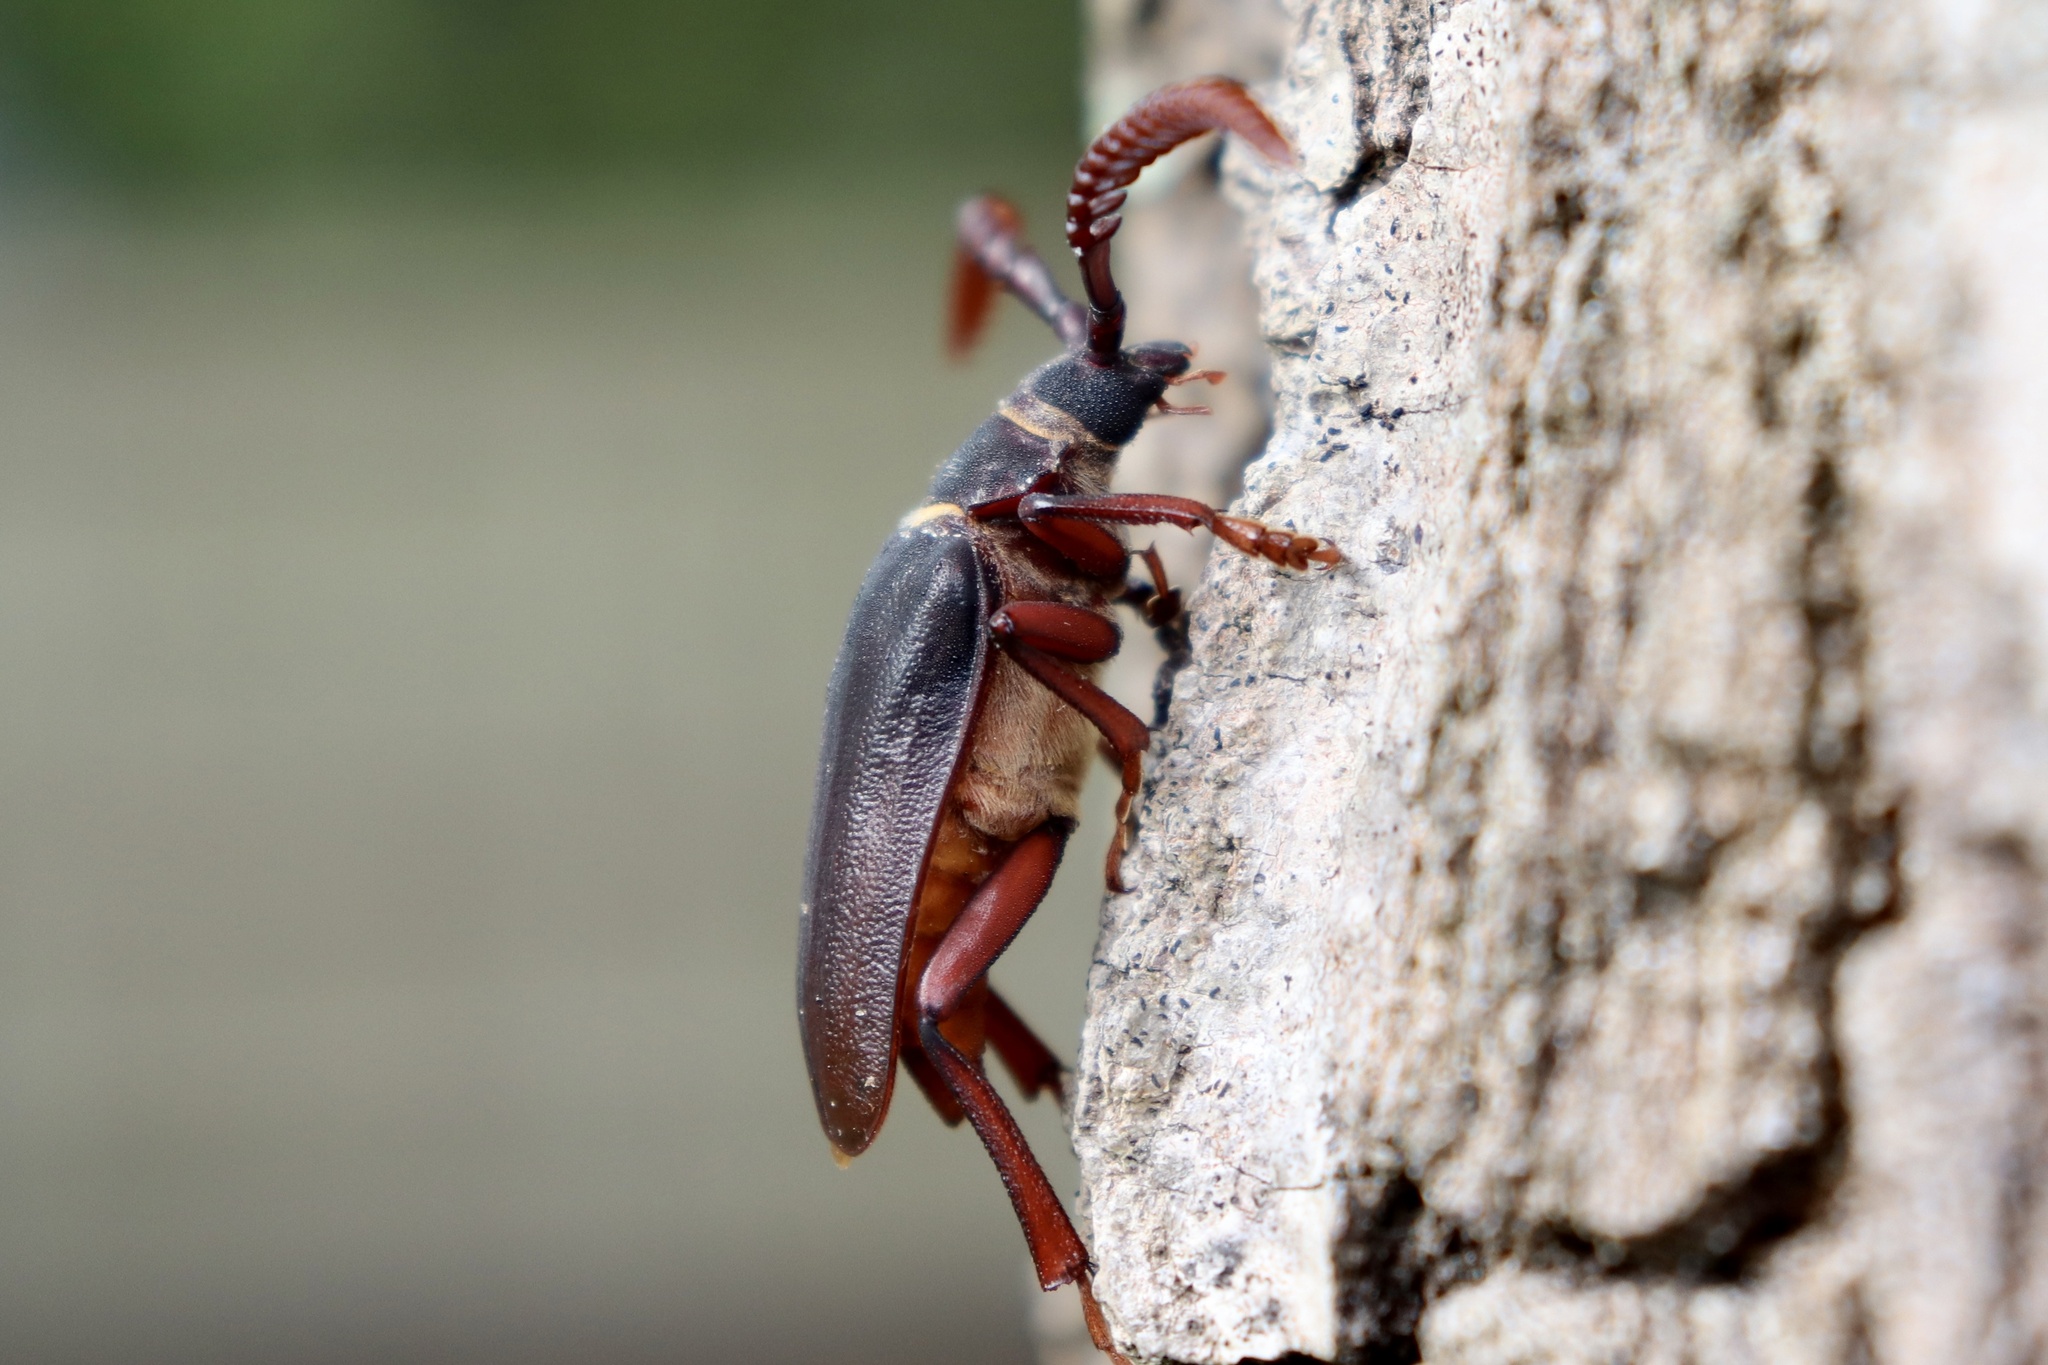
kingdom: Animalia
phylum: Arthropoda
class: Insecta
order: Coleoptera
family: Cerambycidae
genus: Prionus
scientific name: Prionus imbricornis
